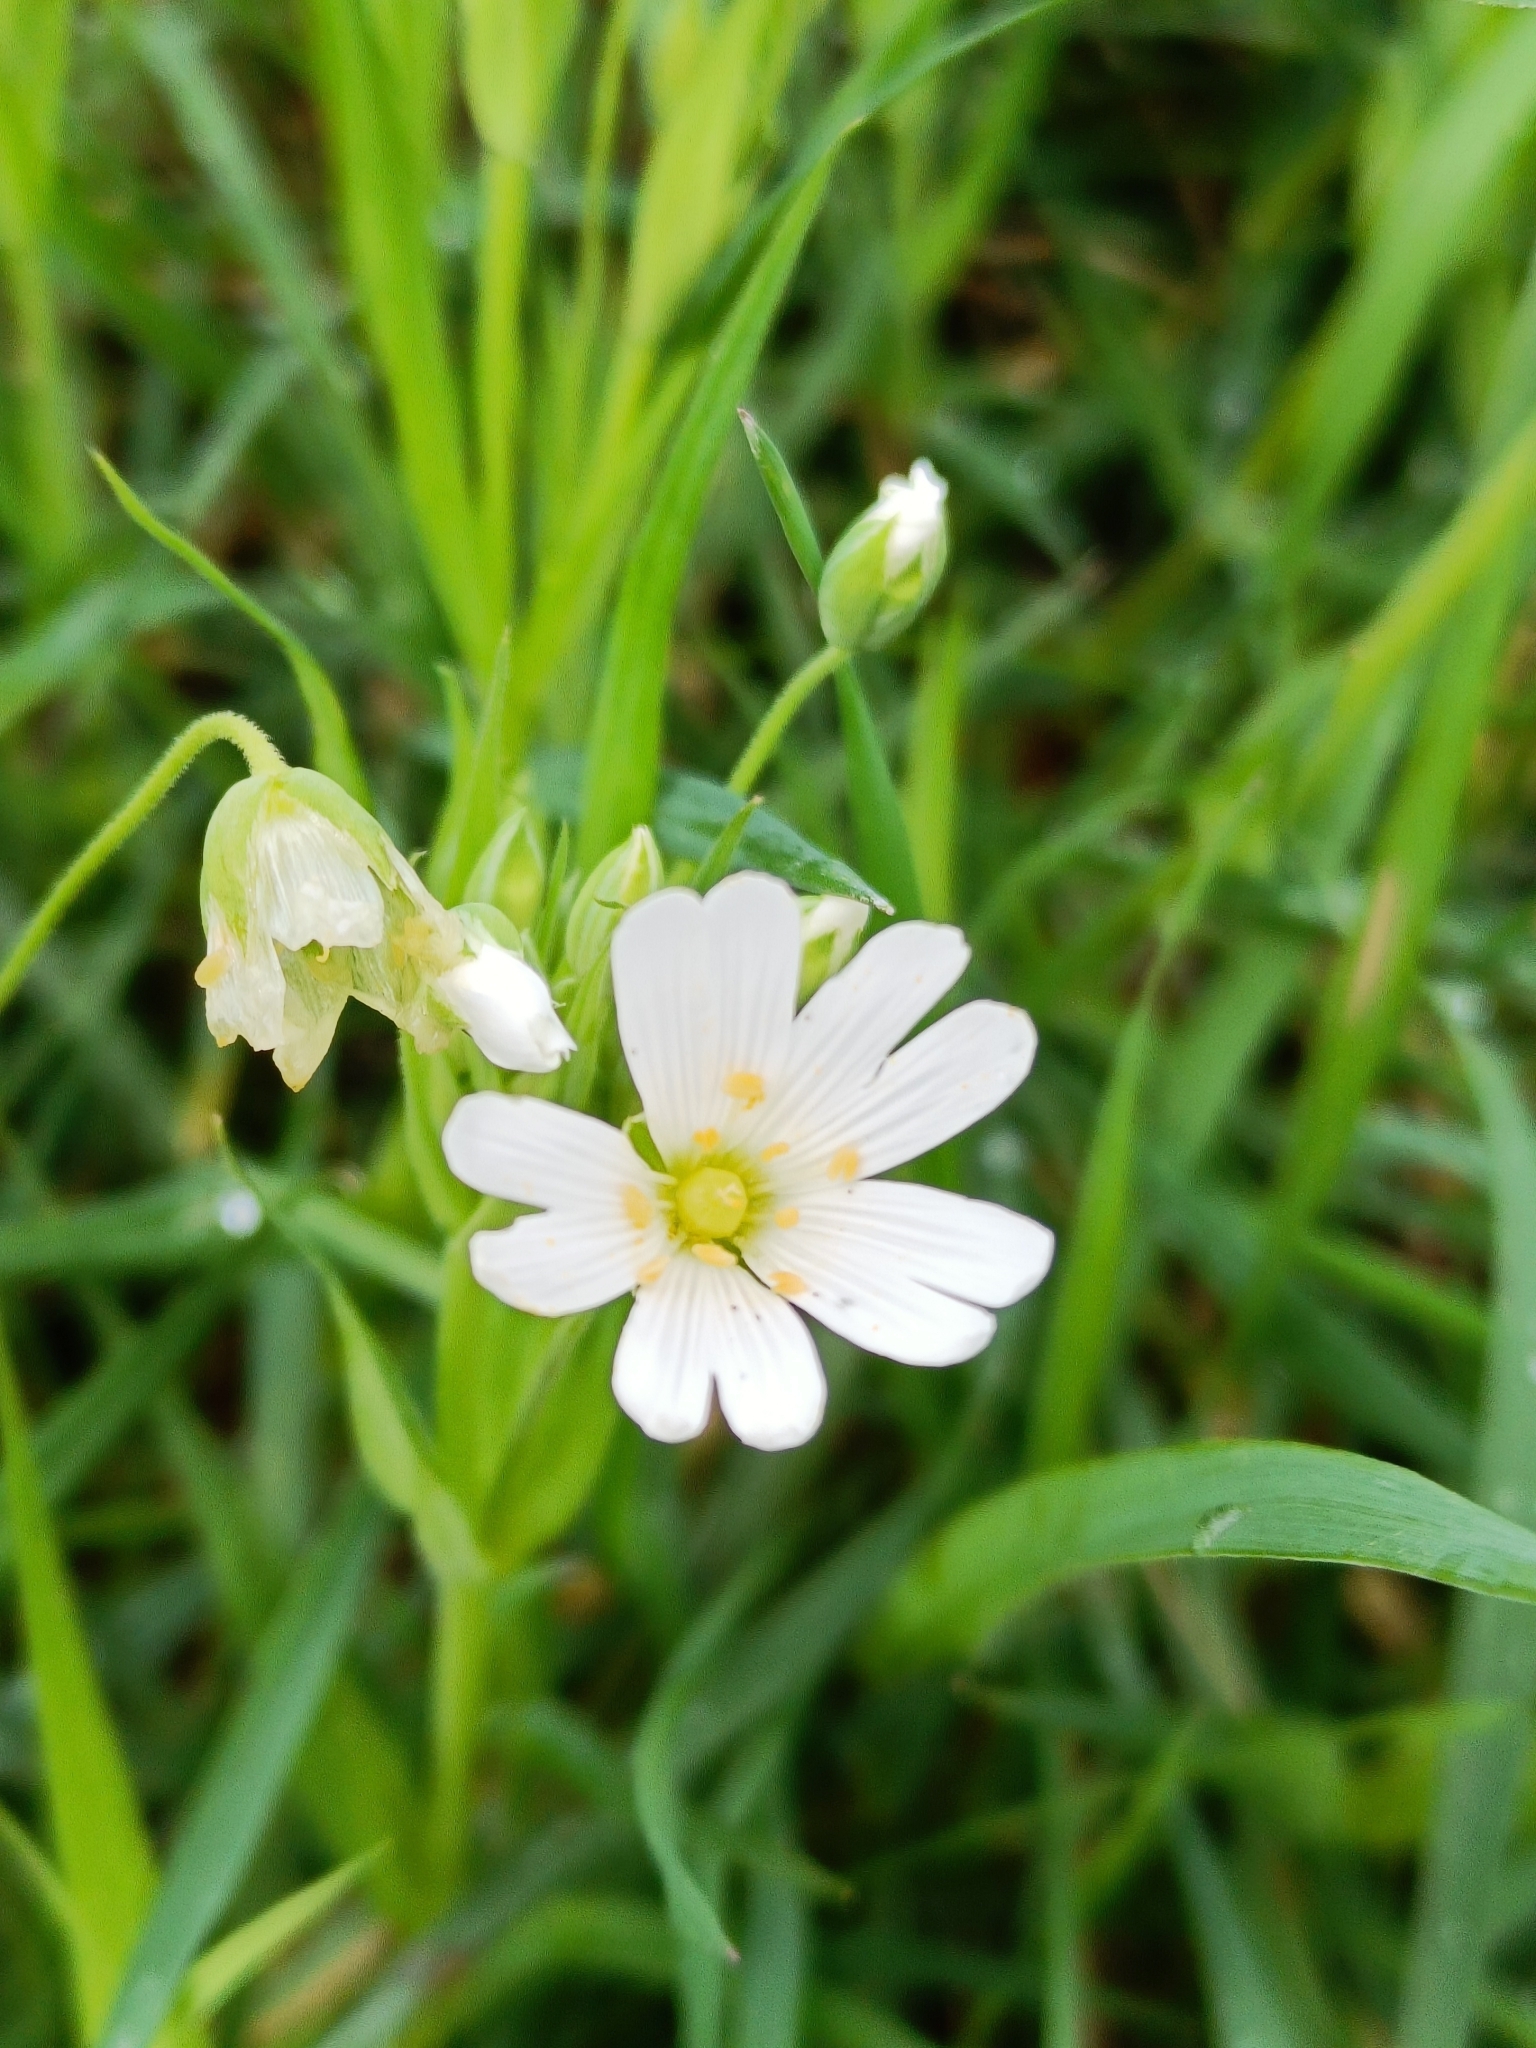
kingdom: Plantae
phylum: Tracheophyta
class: Magnoliopsida
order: Caryophyllales
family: Caryophyllaceae
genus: Rabelera
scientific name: Rabelera holostea
